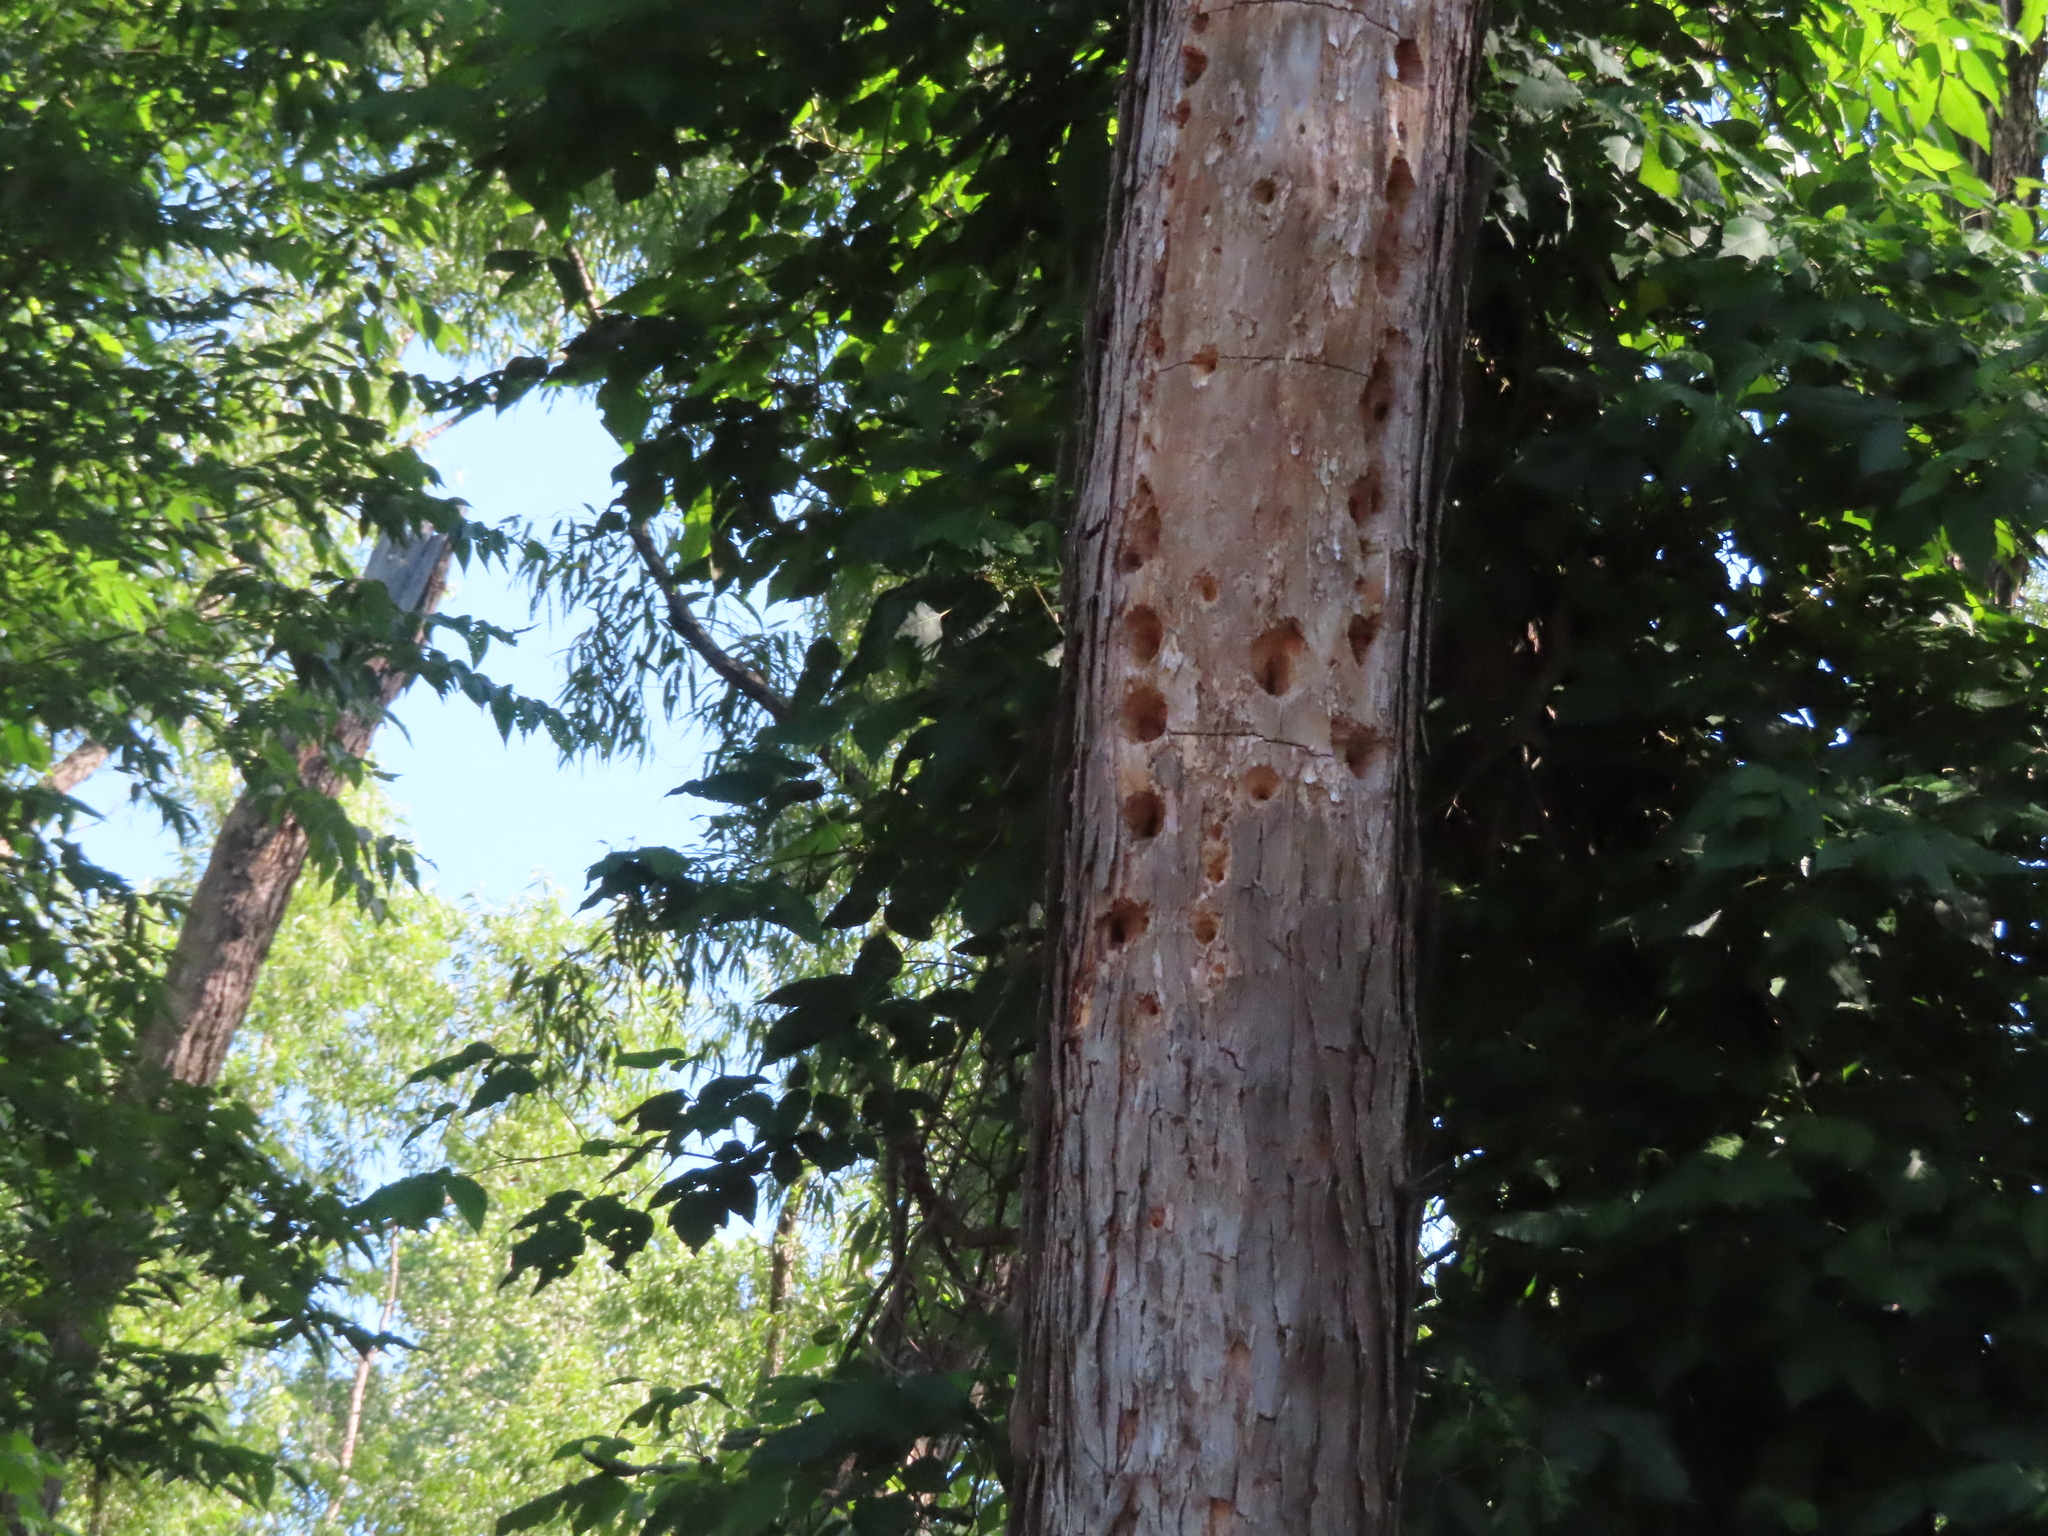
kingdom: Animalia
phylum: Chordata
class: Aves
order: Piciformes
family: Picidae
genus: Dryocopus
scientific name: Dryocopus pileatus
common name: Pileated woodpecker
